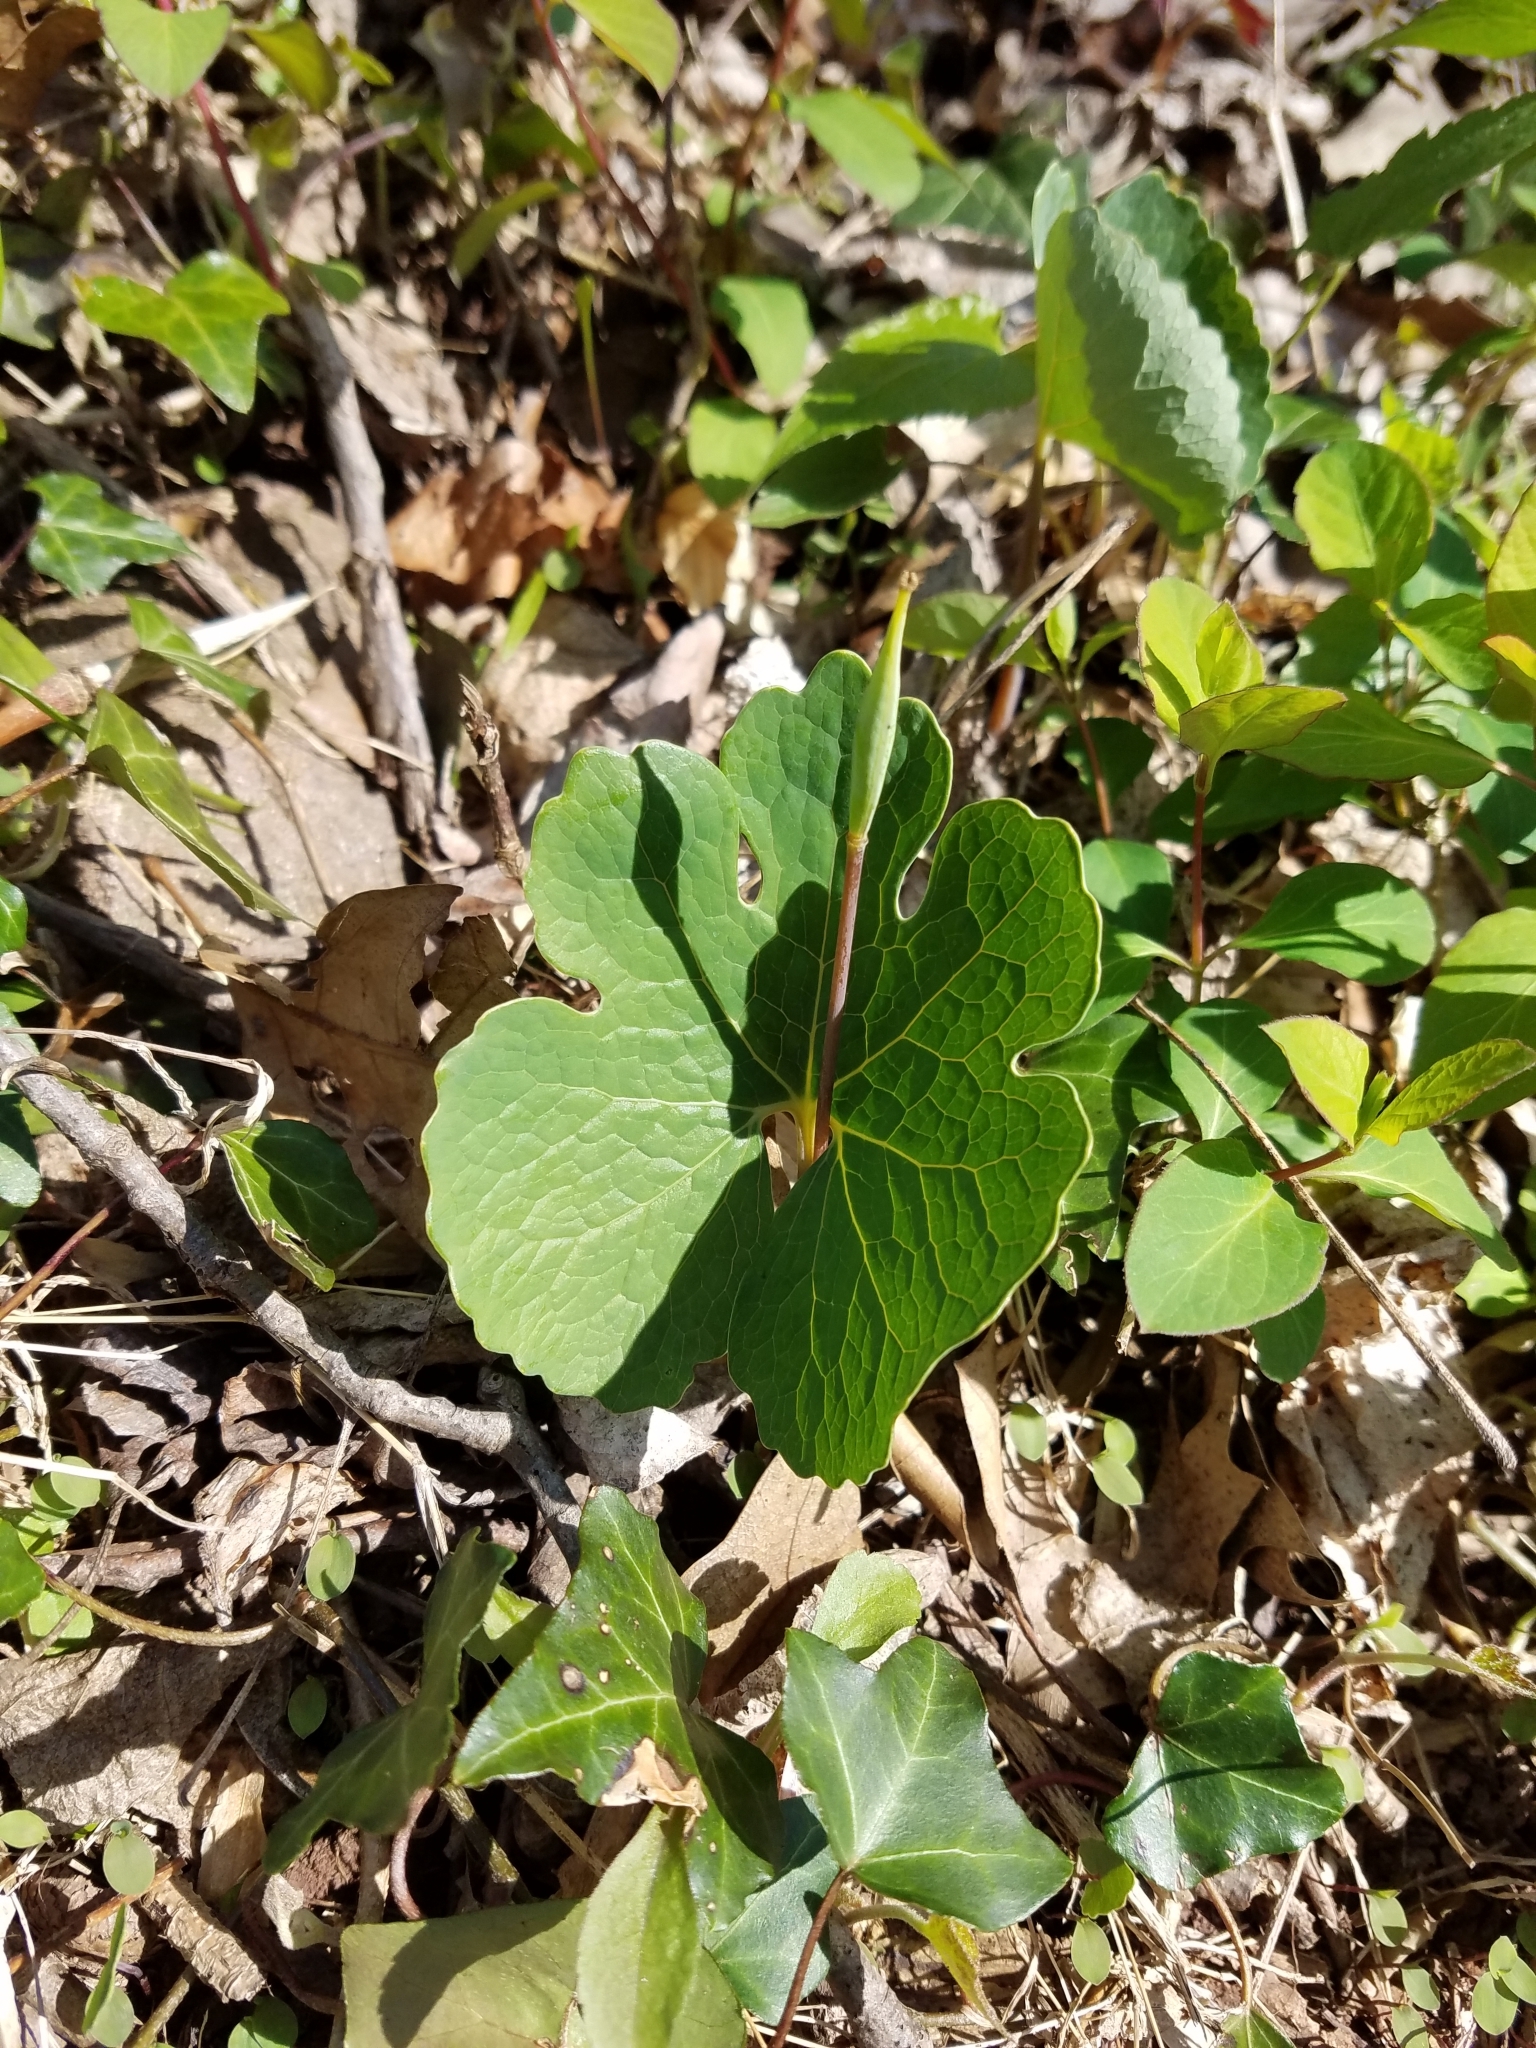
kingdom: Plantae
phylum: Tracheophyta
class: Magnoliopsida
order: Ranunculales
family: Papaveraceae
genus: Sanguinaria
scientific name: Sanguinaria canadensis
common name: Bloodroot
